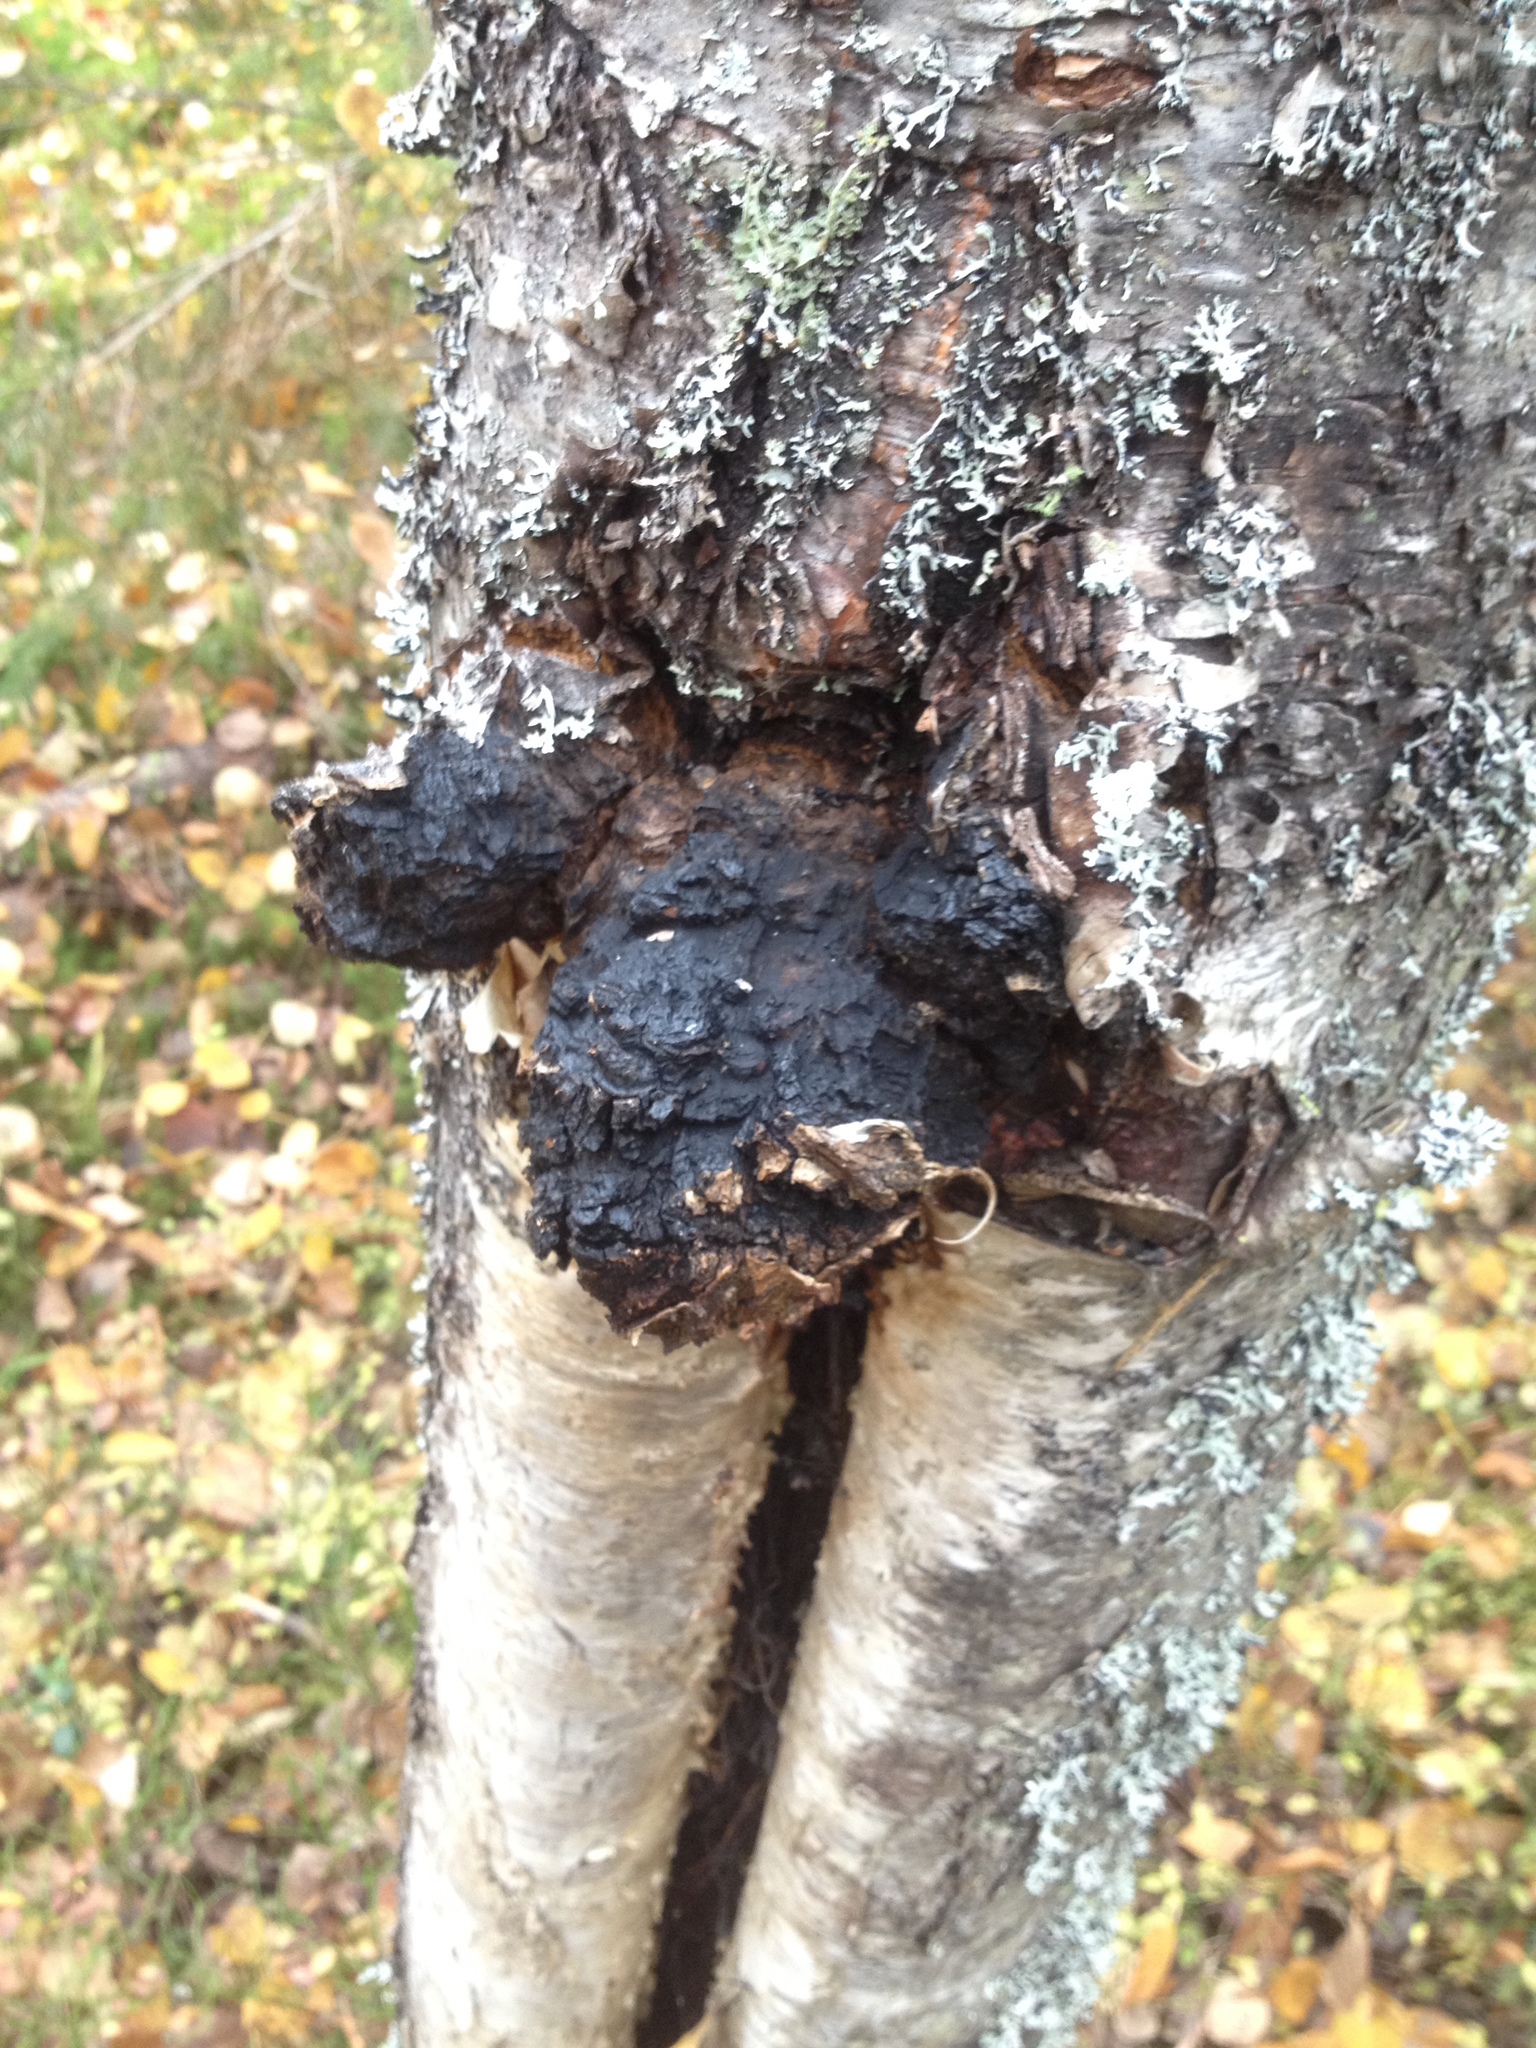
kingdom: Fungi
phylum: Basidiomycota
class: Agaricomycetes
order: Hymenochaetales
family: Hymenochaetaceae
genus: Inonotus
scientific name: Inonotus obliquus
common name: Chaga
